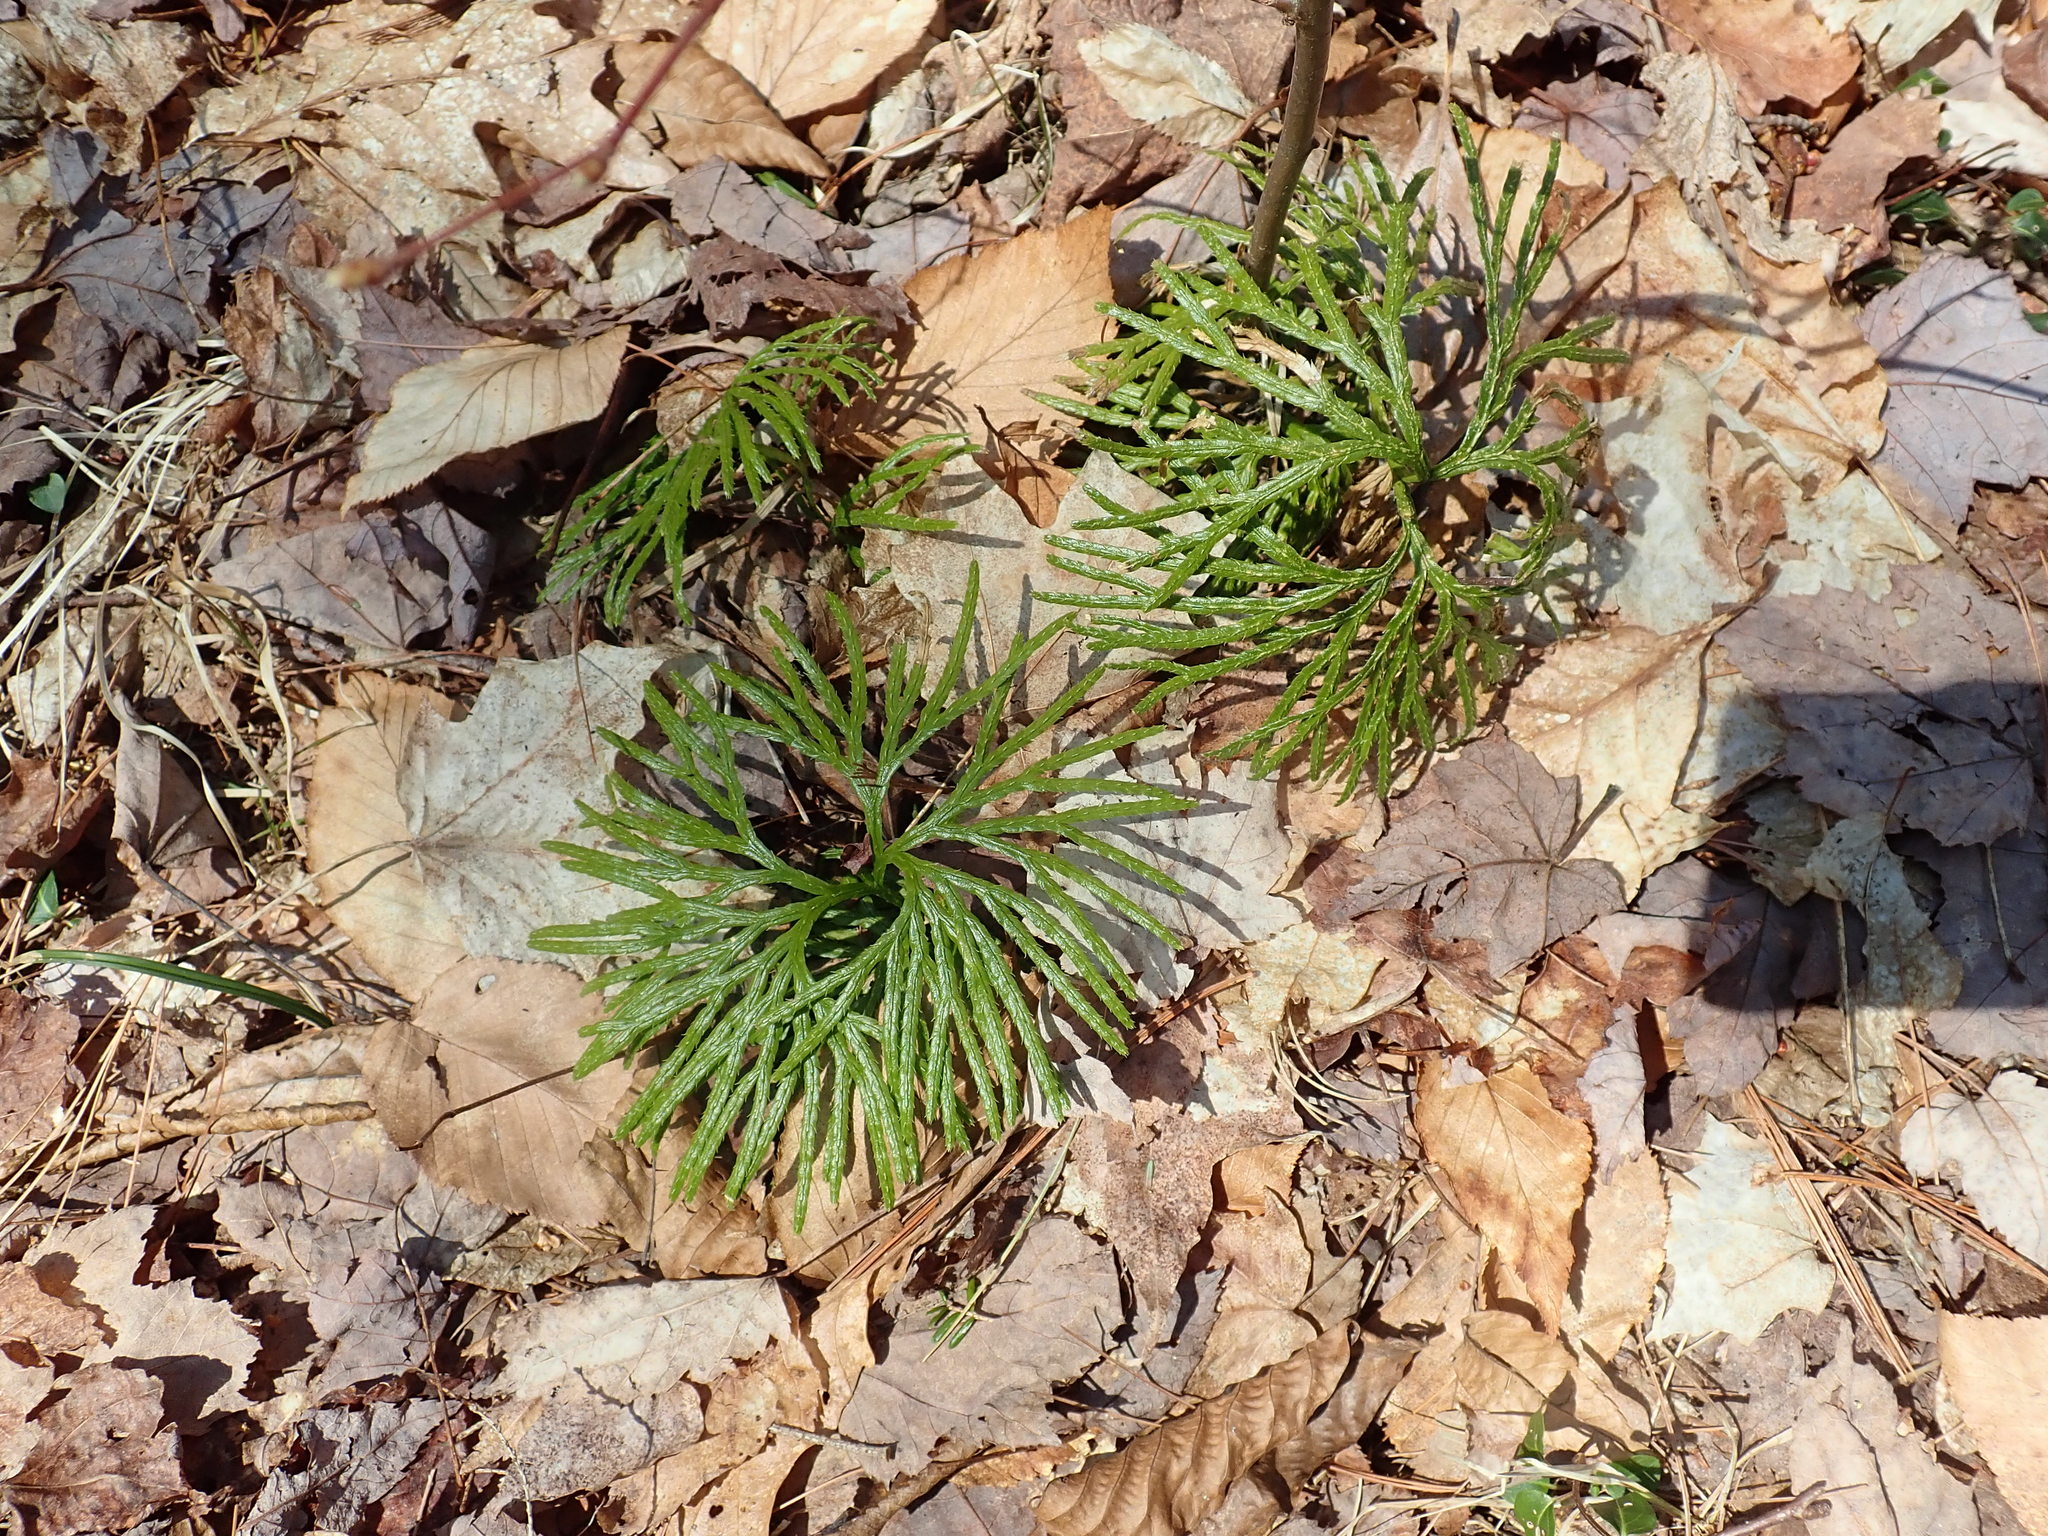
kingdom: Plantae
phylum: Tracheophyta
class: Lycopodiopsida
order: Lycopodiales
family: Lycopodiaceae
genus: Diphasiastrum
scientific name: Diphasiastrum digitatum
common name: Southern running-pine
